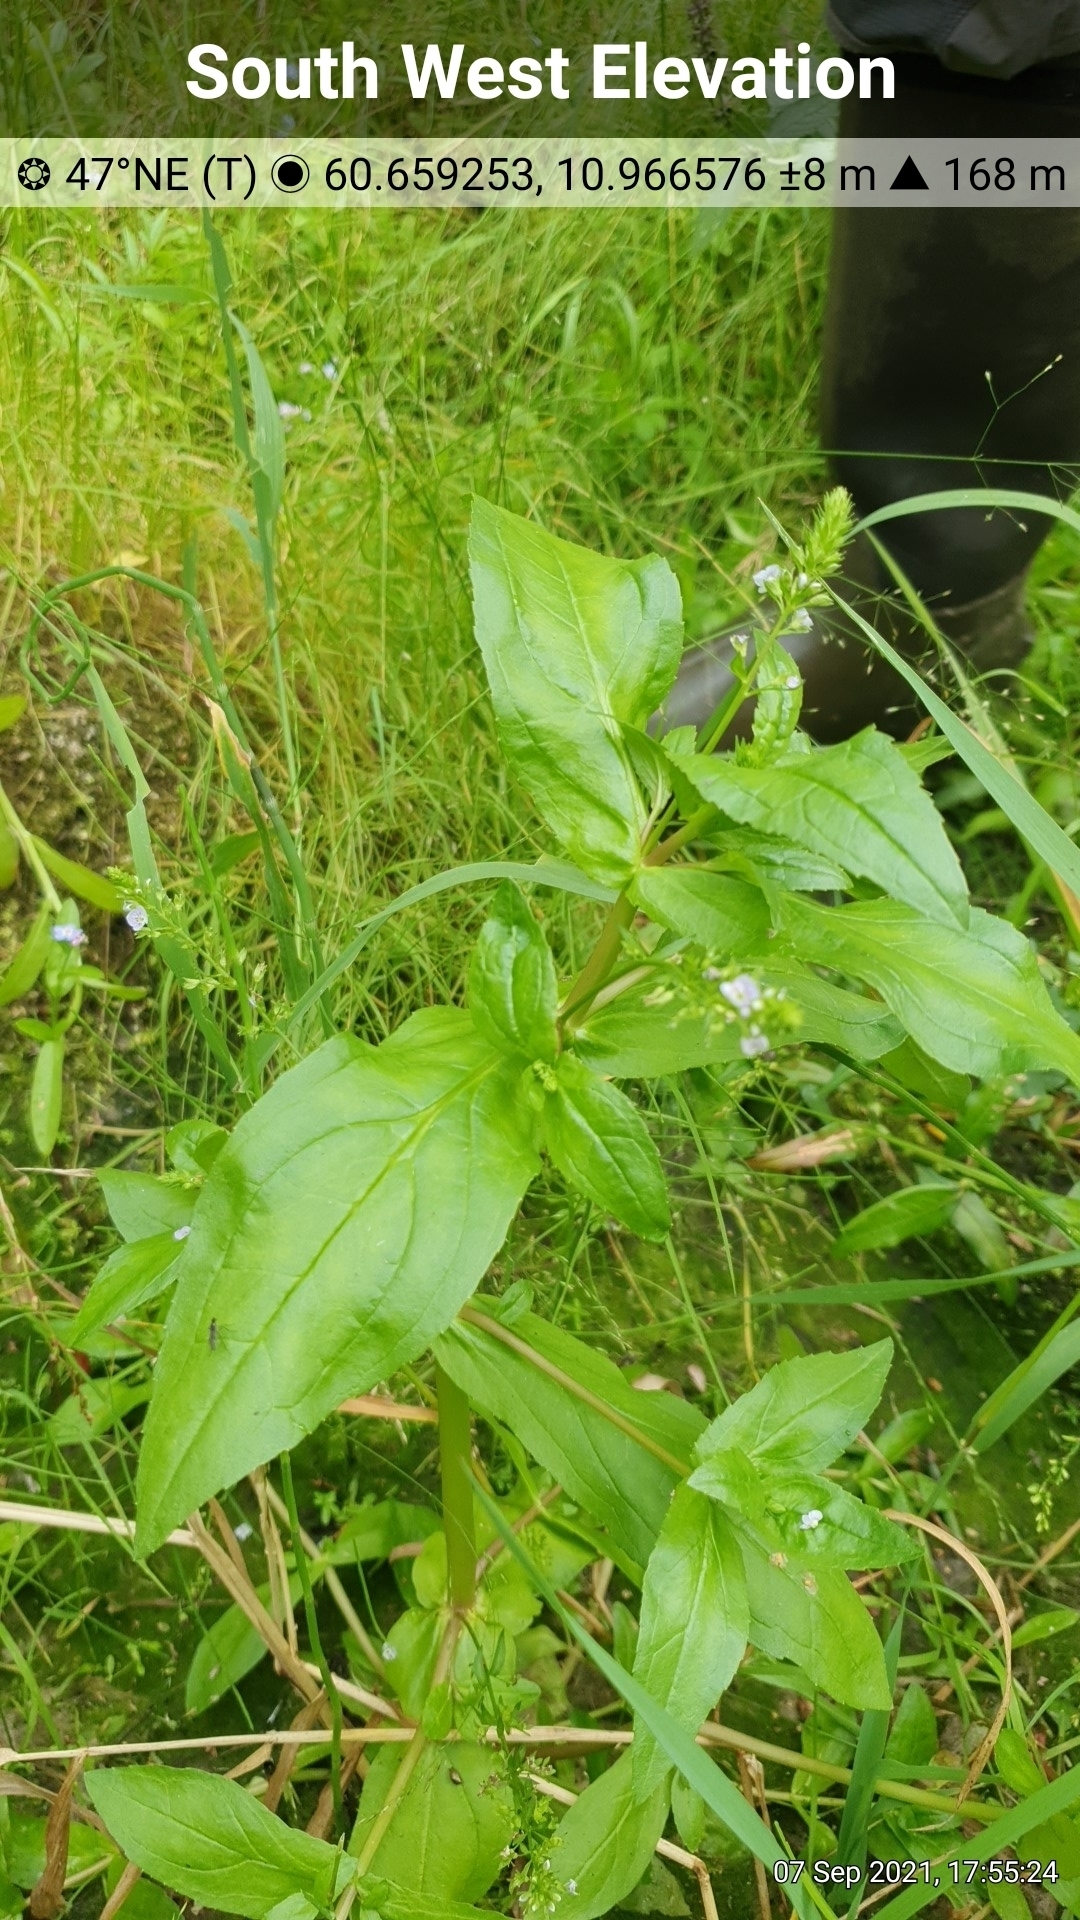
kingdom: Plantae
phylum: Tracheophyta
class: Magnoliopsida
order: Lamiales
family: Plantaginaceae
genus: Veronica
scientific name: Veronica anagallis-aquatica
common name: Water speedwell
